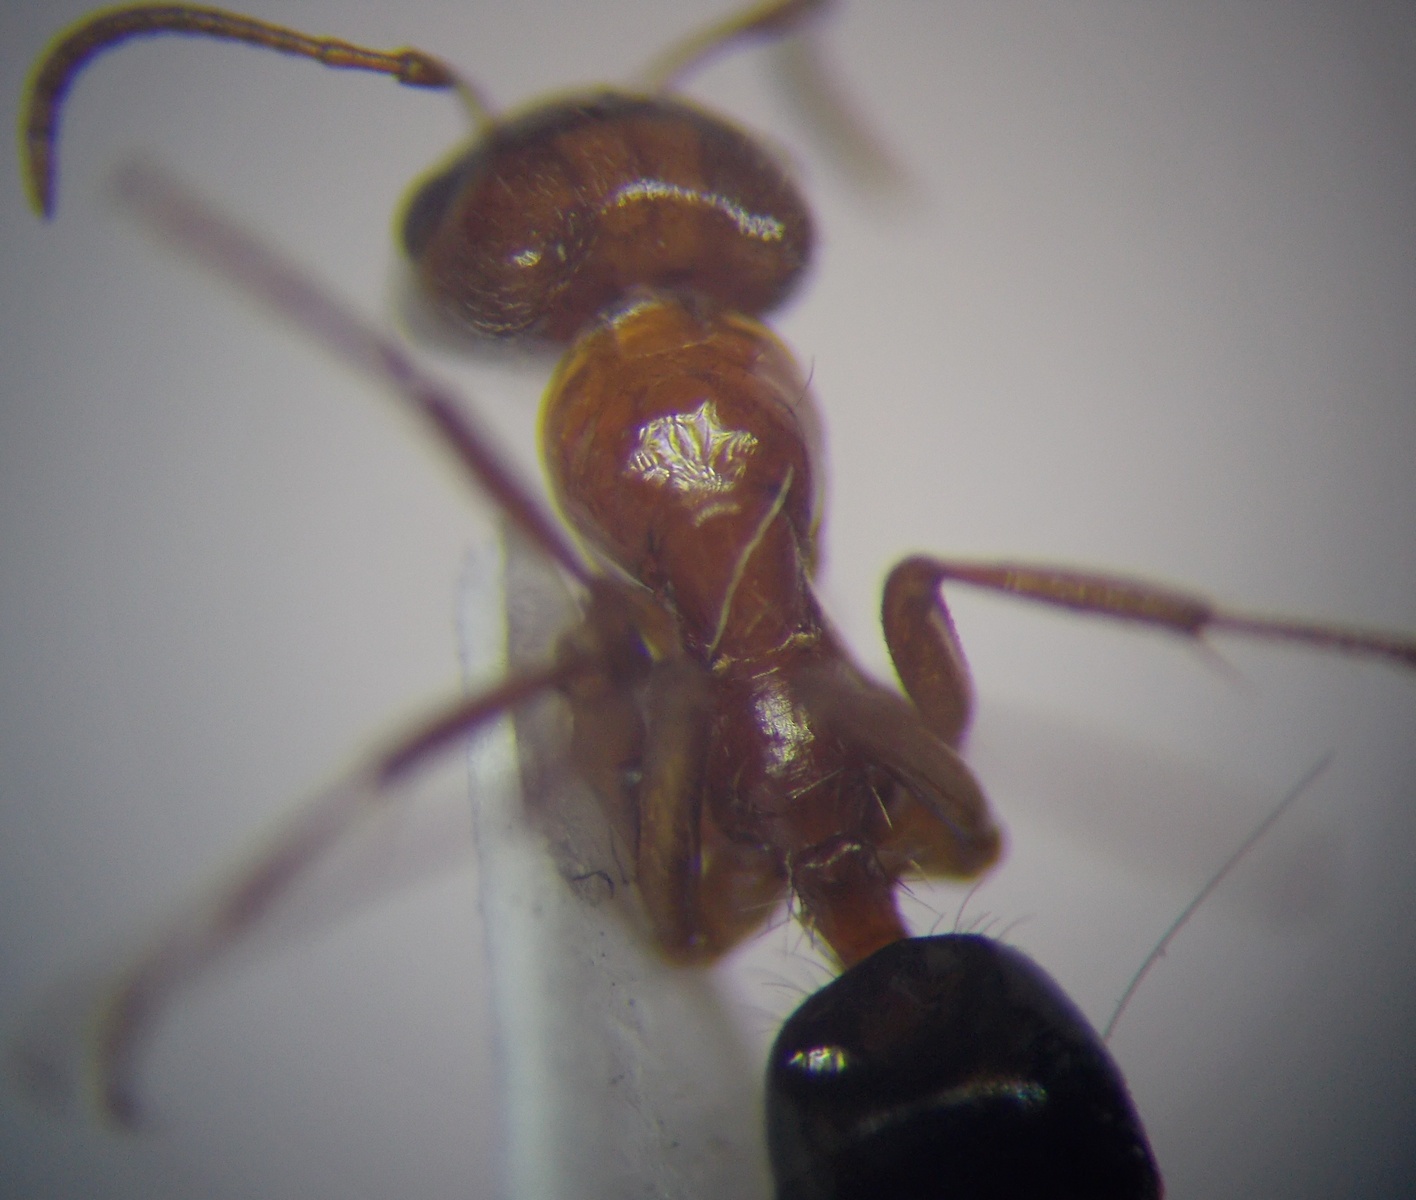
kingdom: Animalia
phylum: Arthropoda
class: Insecta
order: Hymenoptera
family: Formicidae
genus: Rossomyrmex
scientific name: Rossomyrmex proformicarum
